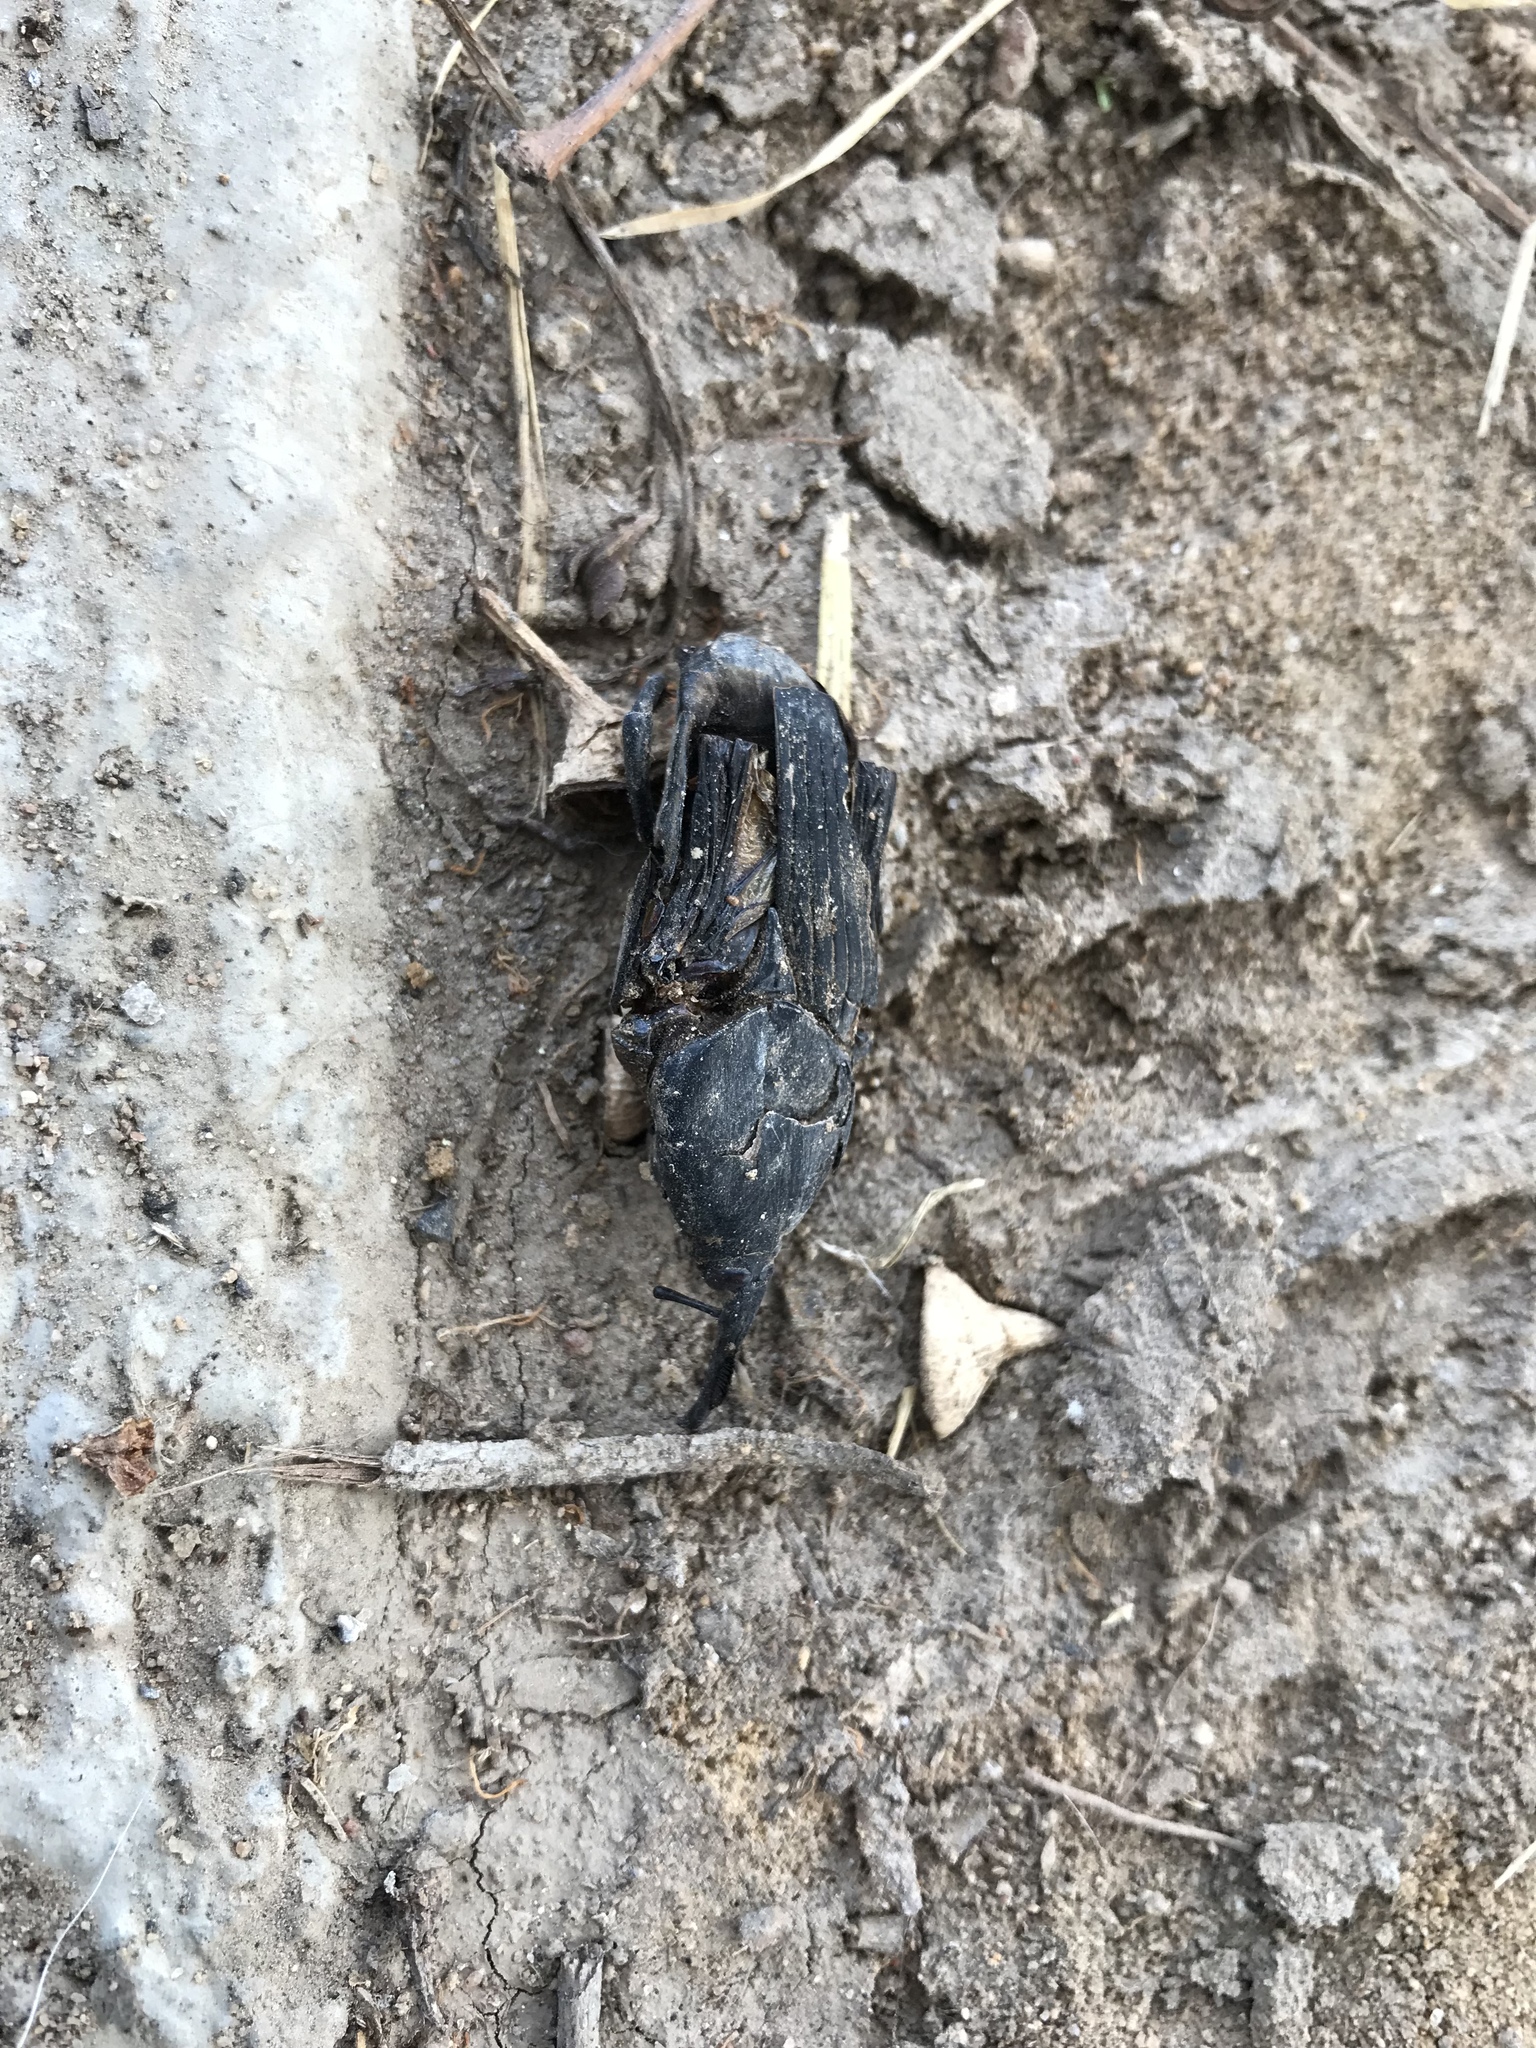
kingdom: Animalia
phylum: Arthropoda
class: Insecta
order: Coleoptera
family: Dryophthoridae
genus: Rhynchophorus
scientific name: Rhynchophorus palmarum
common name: Palm weevil
